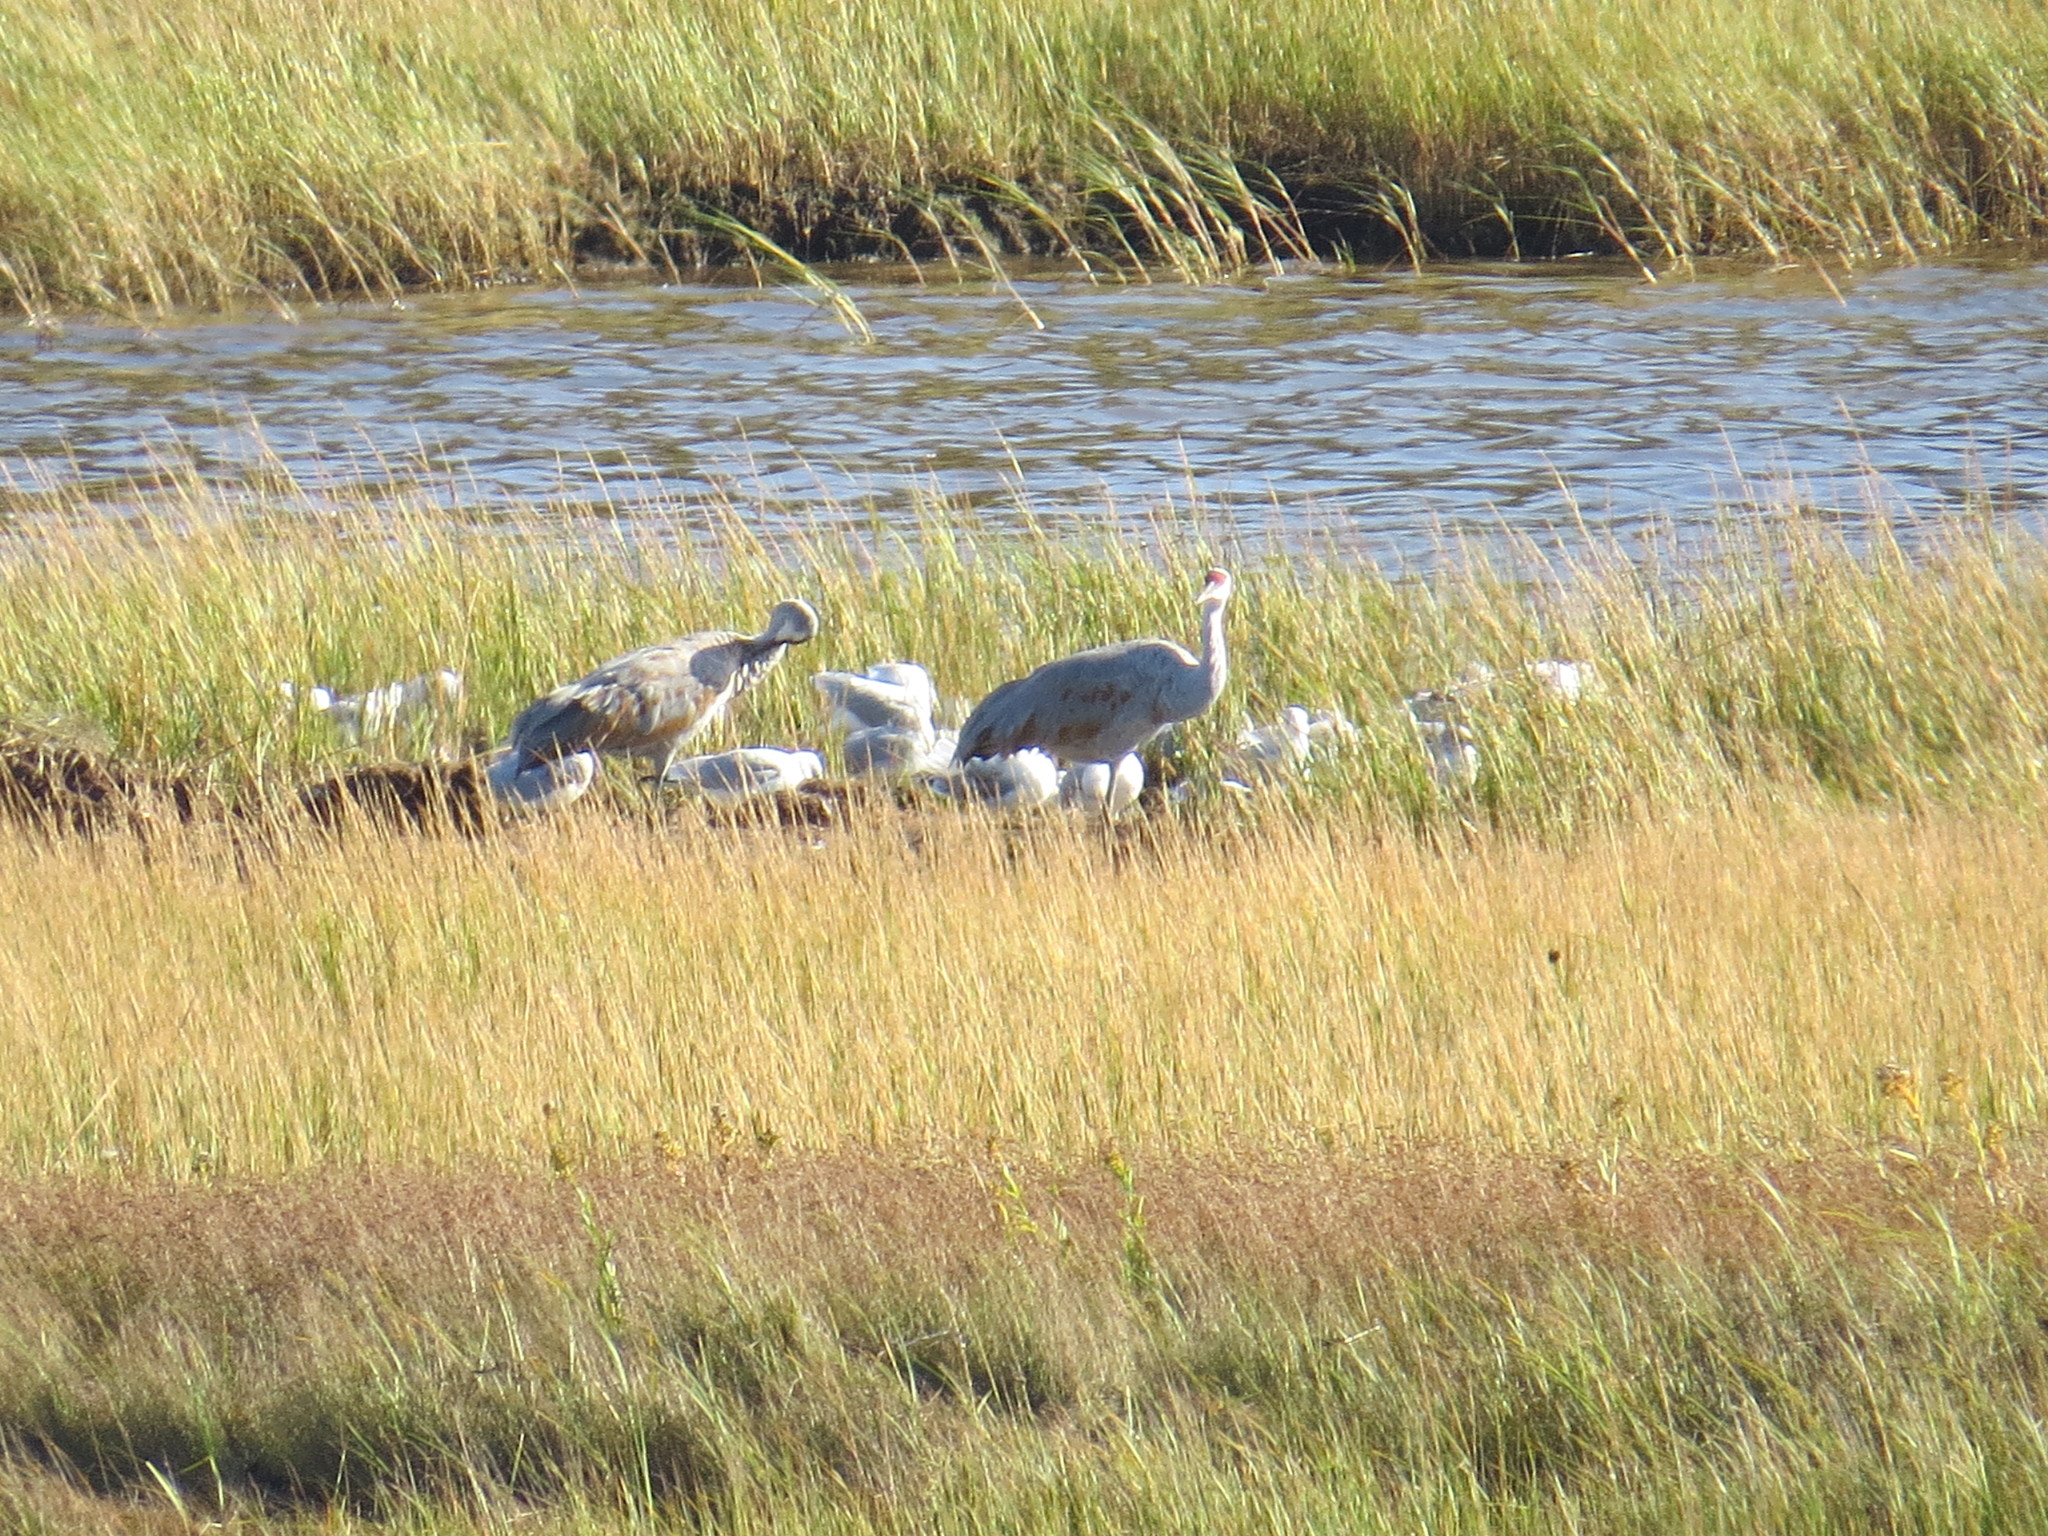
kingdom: Animalia
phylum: Chordata
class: Aves
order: Gruiformes
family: Gruidae
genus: Grus
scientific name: Grus canadensis
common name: Sandhill crane
